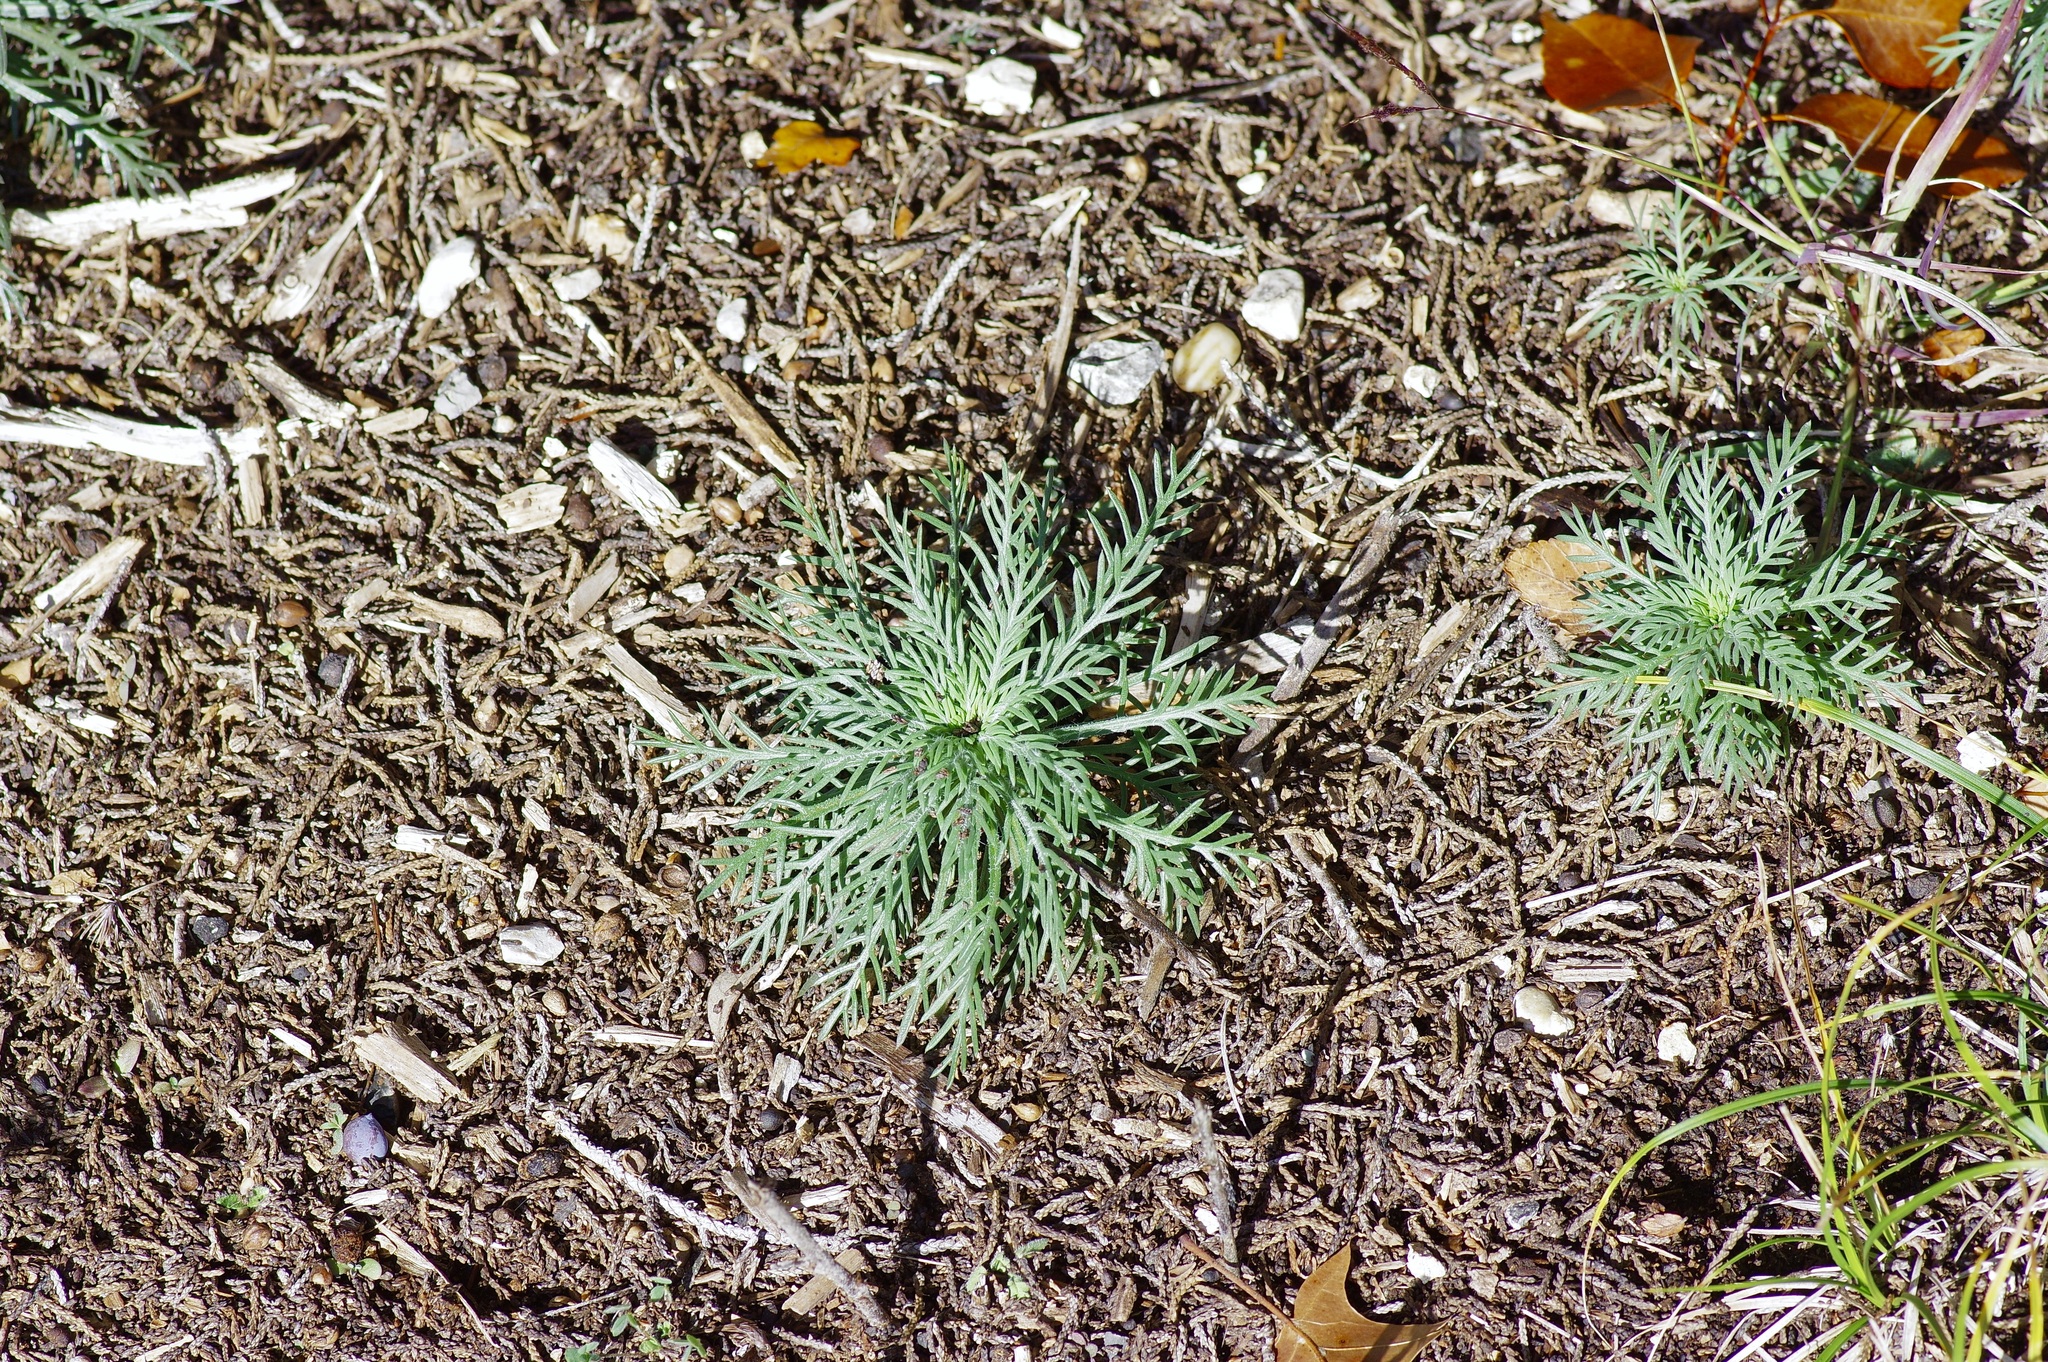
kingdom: Plantae
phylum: Tracheophyta
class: Magnoliopsida
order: Ericales
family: Polemoniaceae
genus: Ipomopsis
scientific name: Ipomopsis rubra
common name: Skyrocket
